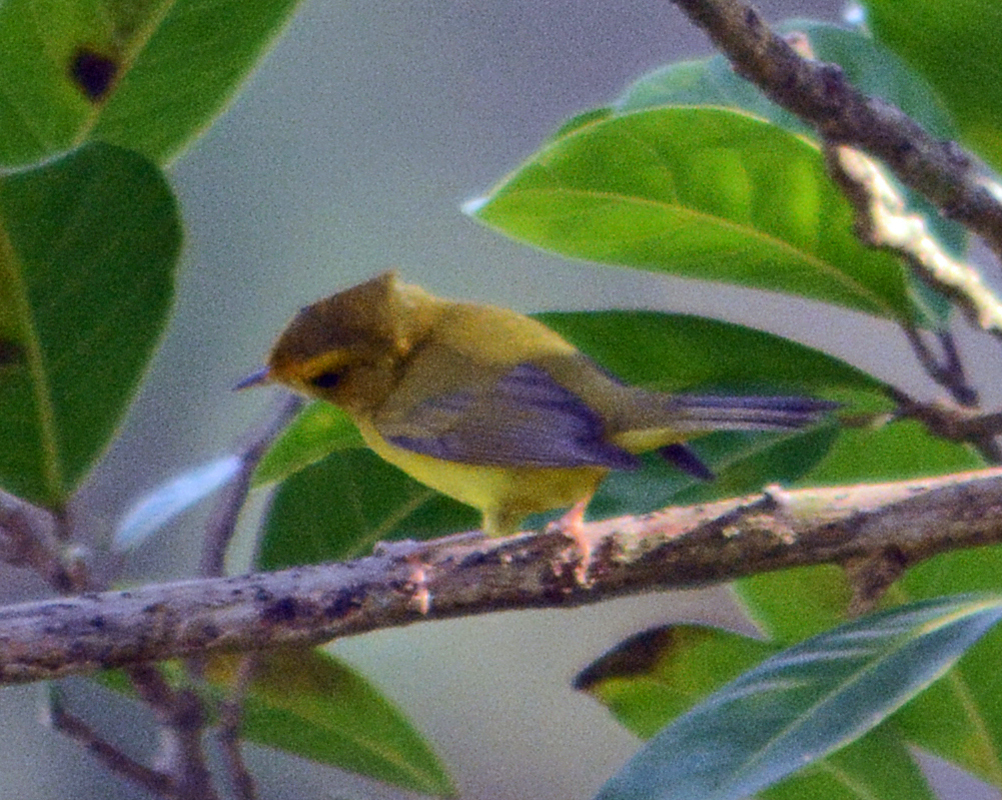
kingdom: Animalia
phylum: Chordata
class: Aves
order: Passeriformes
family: Parulidae
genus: Cardellina
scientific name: Cardellina pusilla
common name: Wilson's warbler
